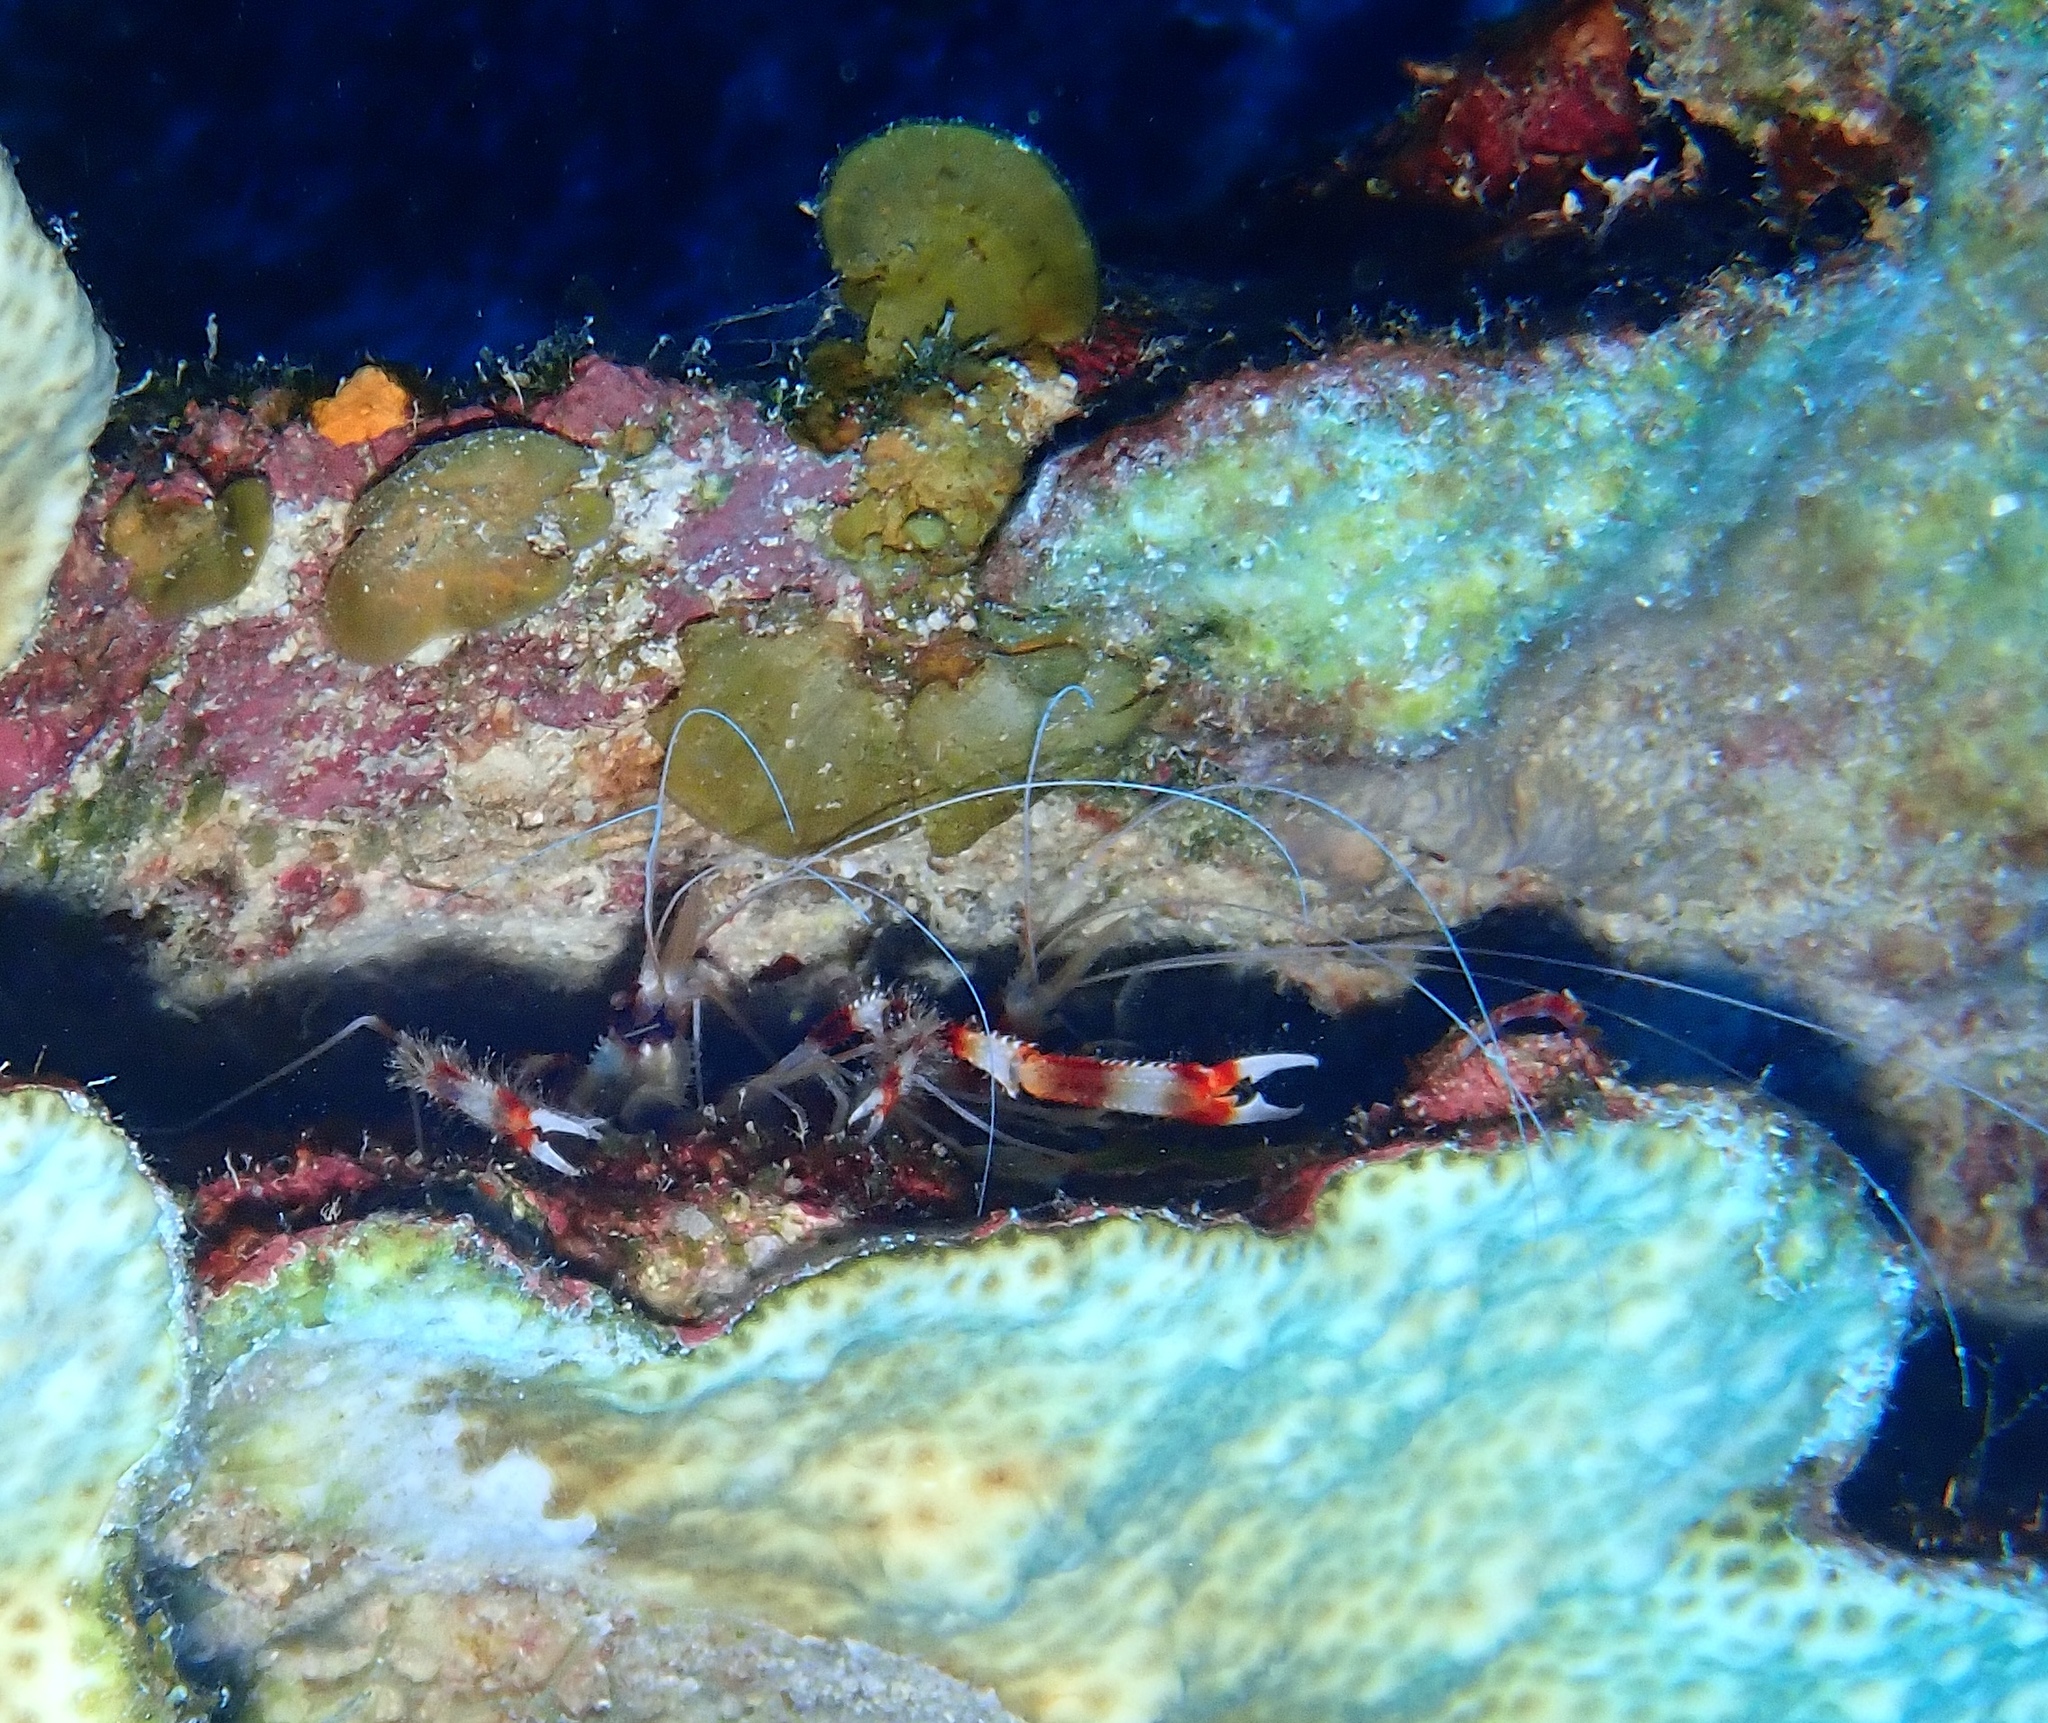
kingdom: Animalia
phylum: Arthropoda
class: Malacostraca
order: Decapoda
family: Stenopodidae
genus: Stenopus
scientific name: Stenopus hispidus
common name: Banded coral shrimp
